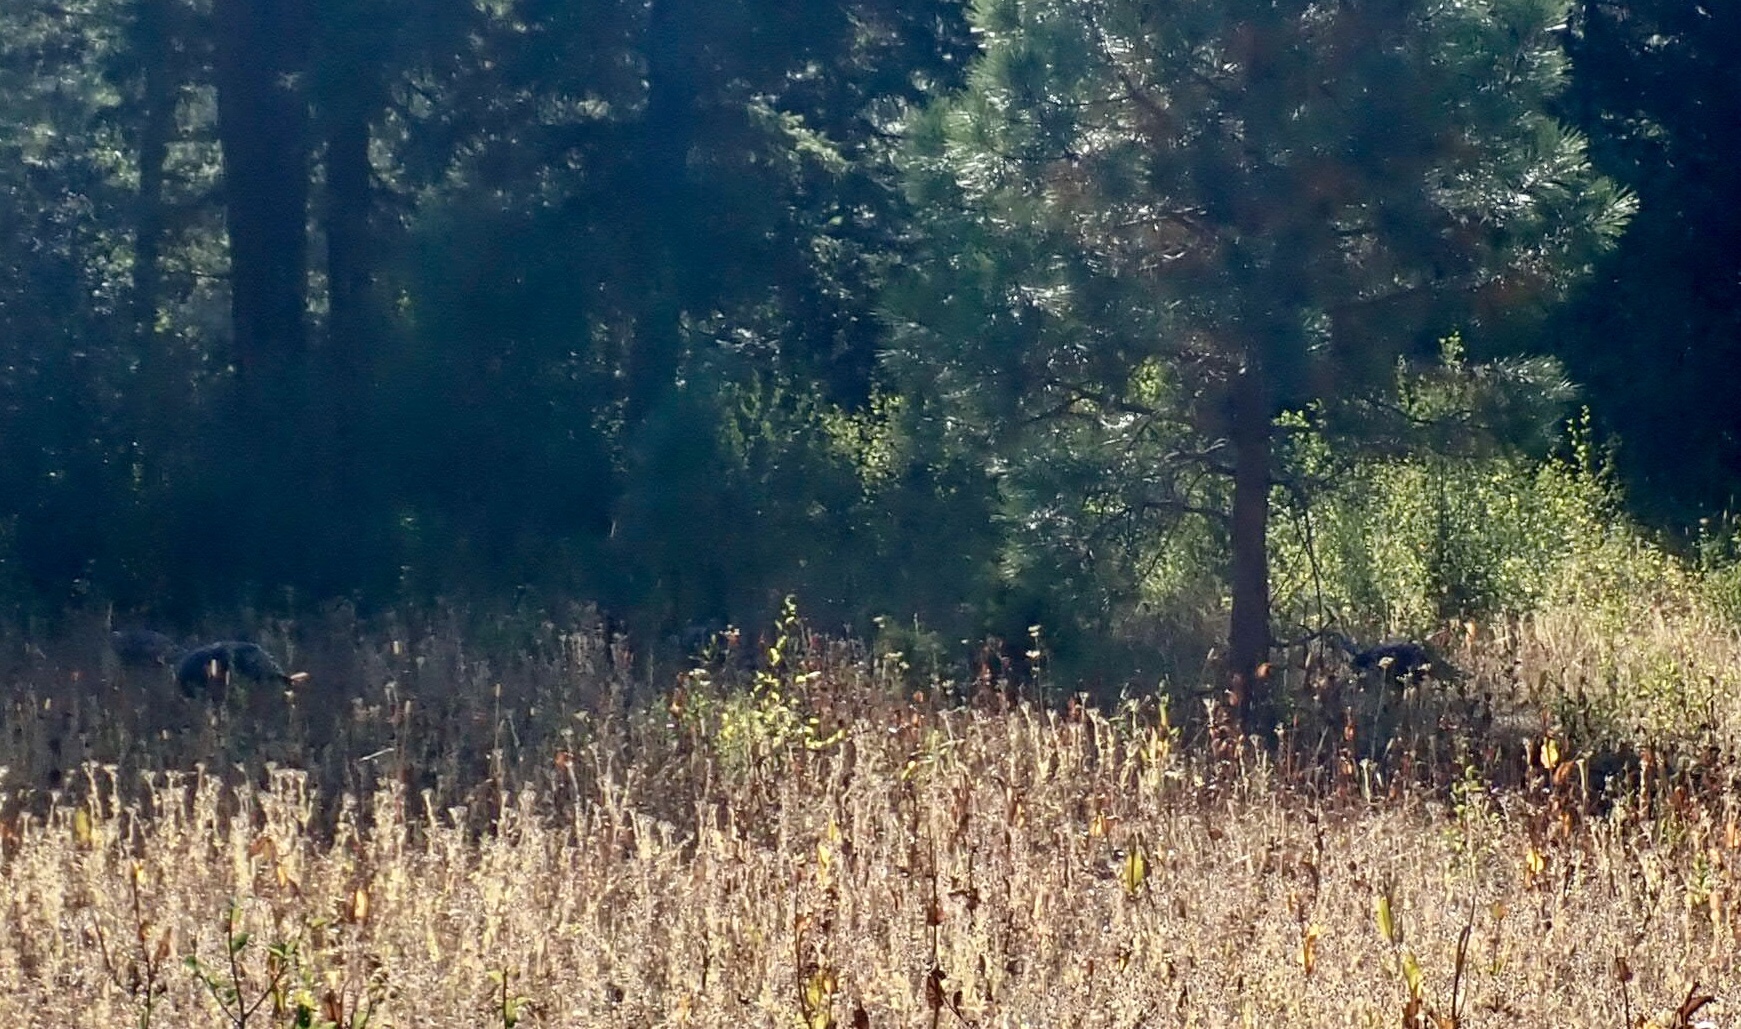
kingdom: Animalia
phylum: Chordata
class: Aves
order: Galliformes
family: Phasianidae
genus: Meleagris
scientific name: Meleagris gallopavo
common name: Wild turkey
